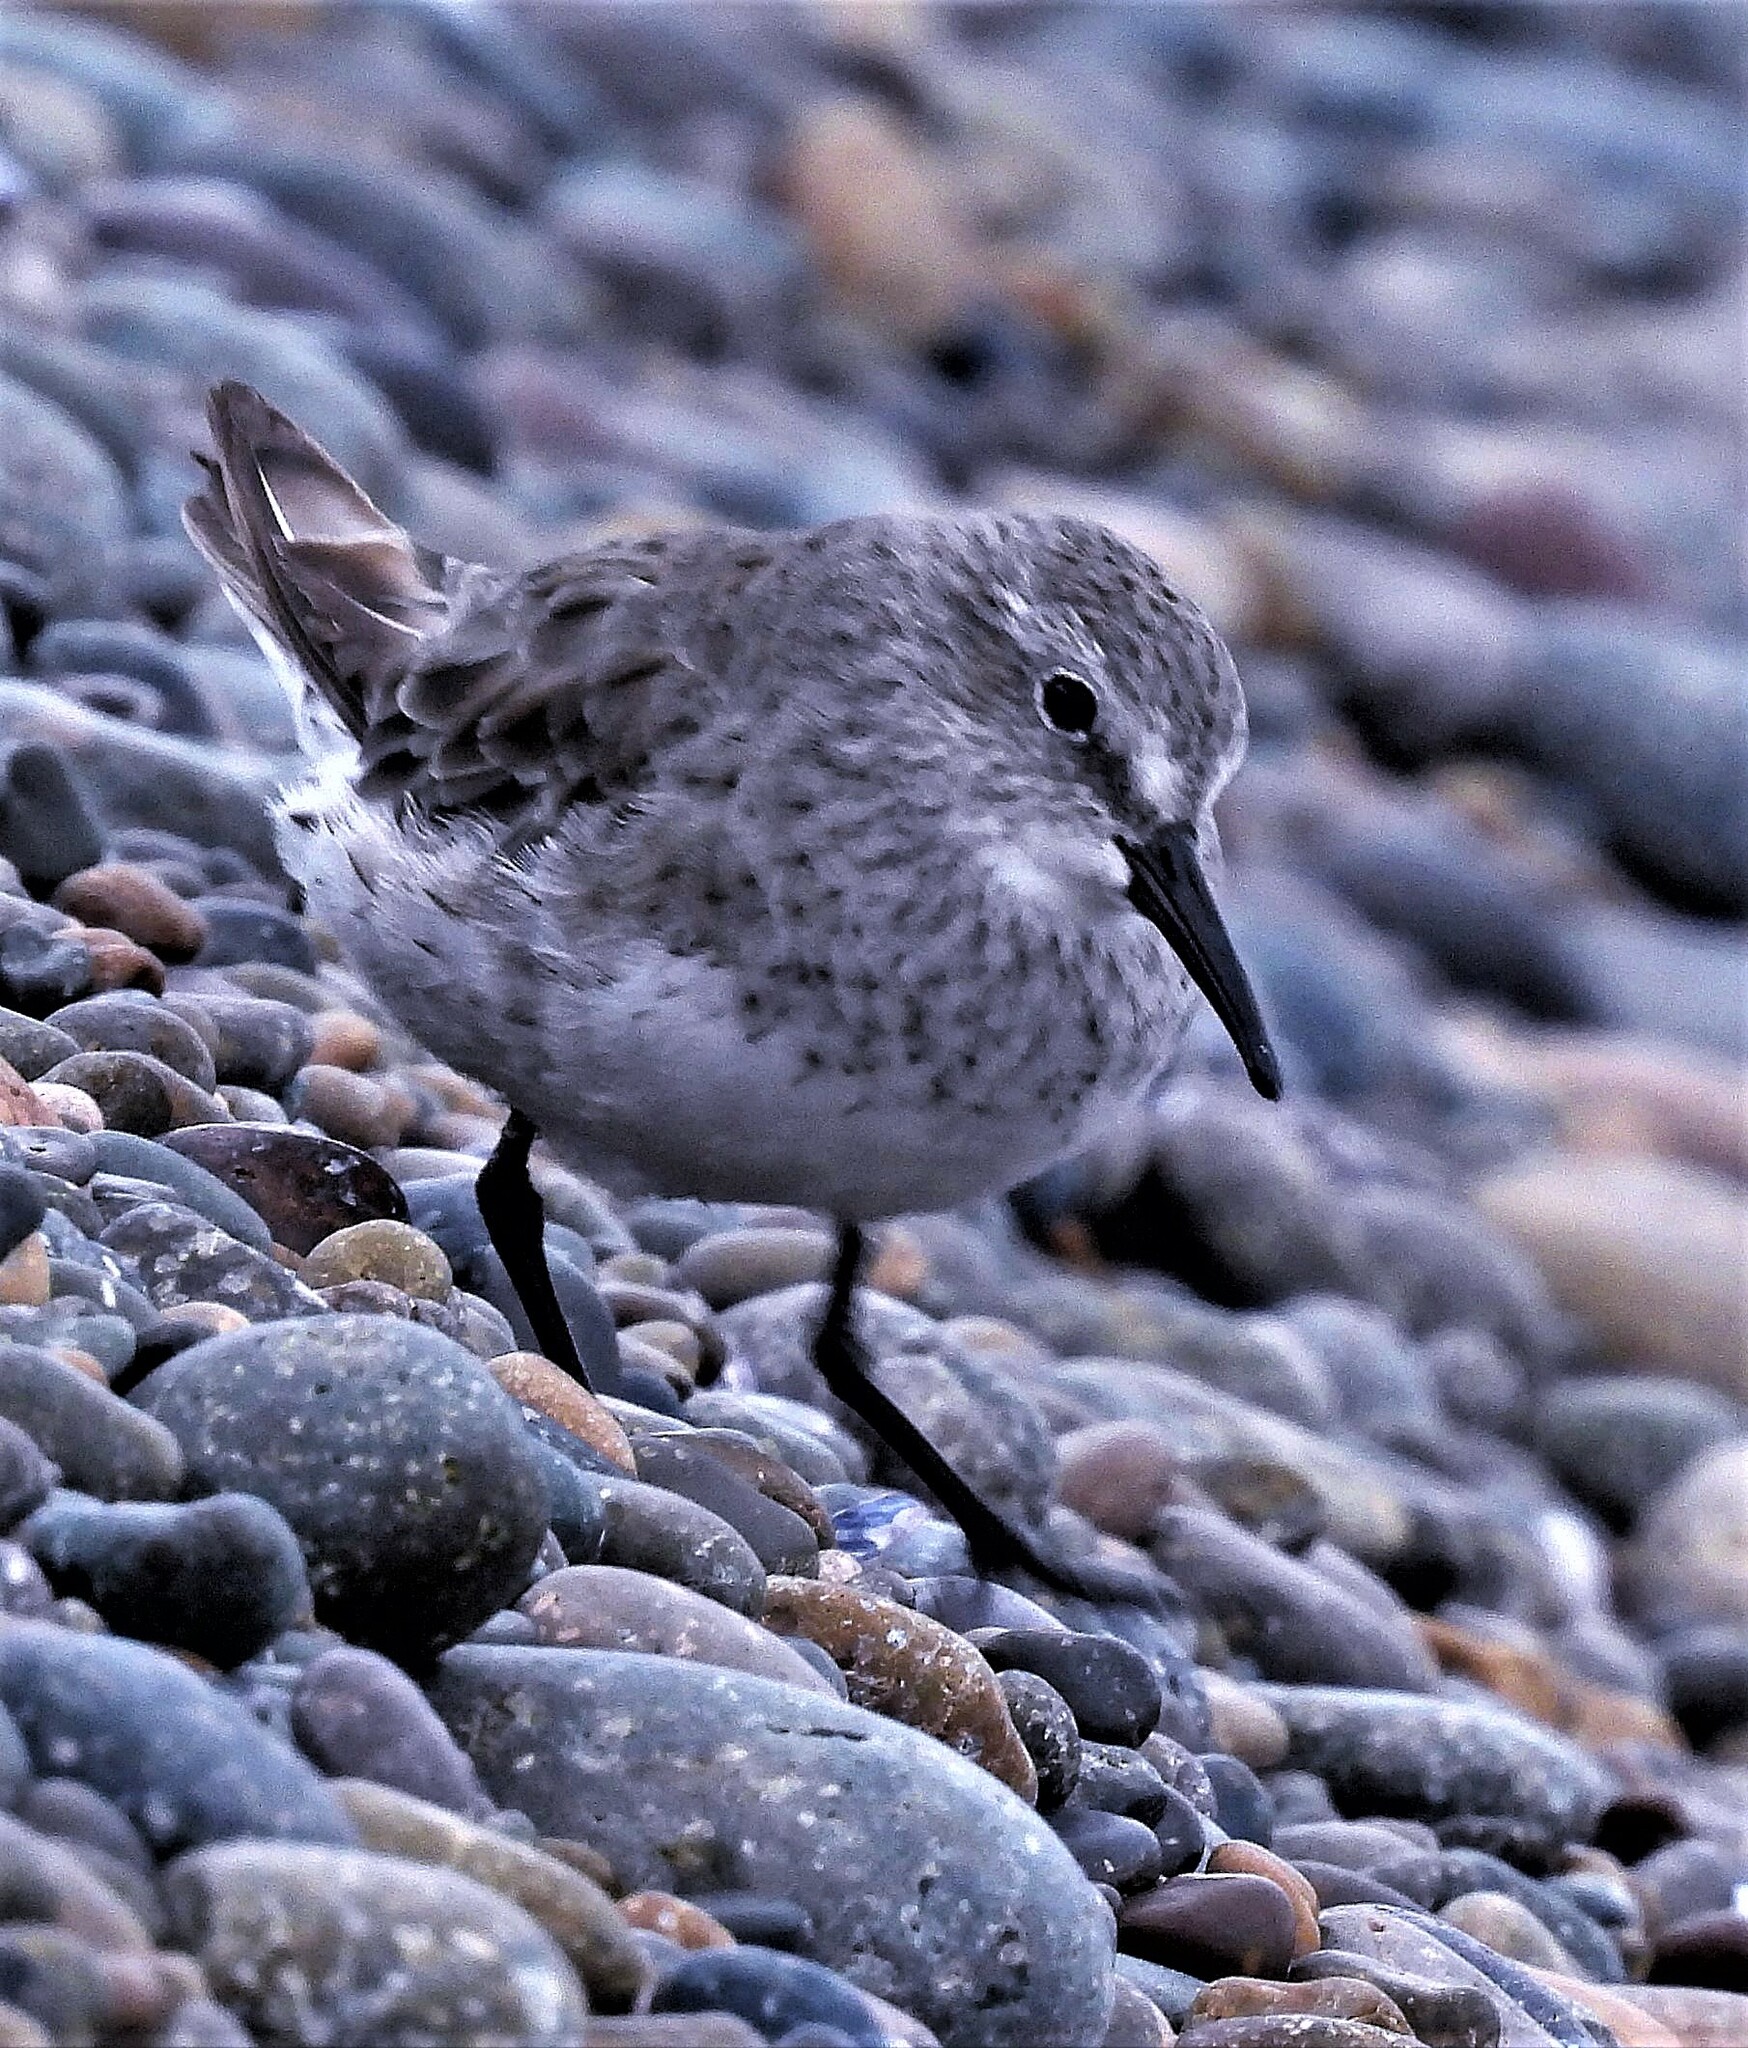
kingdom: Animalia
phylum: Chordata
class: Aves
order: Charadriiformes
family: Scolopacidae
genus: Calidris
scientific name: Calidris fuscicollis
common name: White-rumped sandpiper
